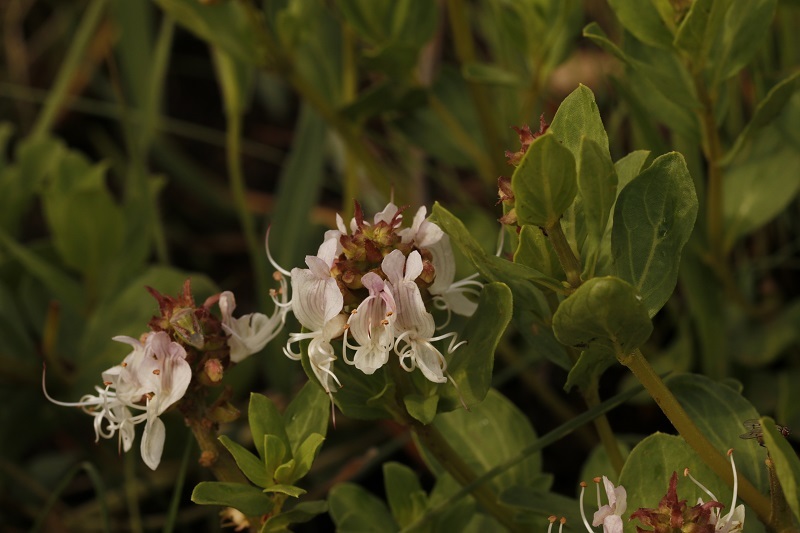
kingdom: Plantae
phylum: Tracheophyta
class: Magnoliopsida
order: Lamiales
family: Lamiaceae
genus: Ocimum
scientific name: Ocimum obovatum
